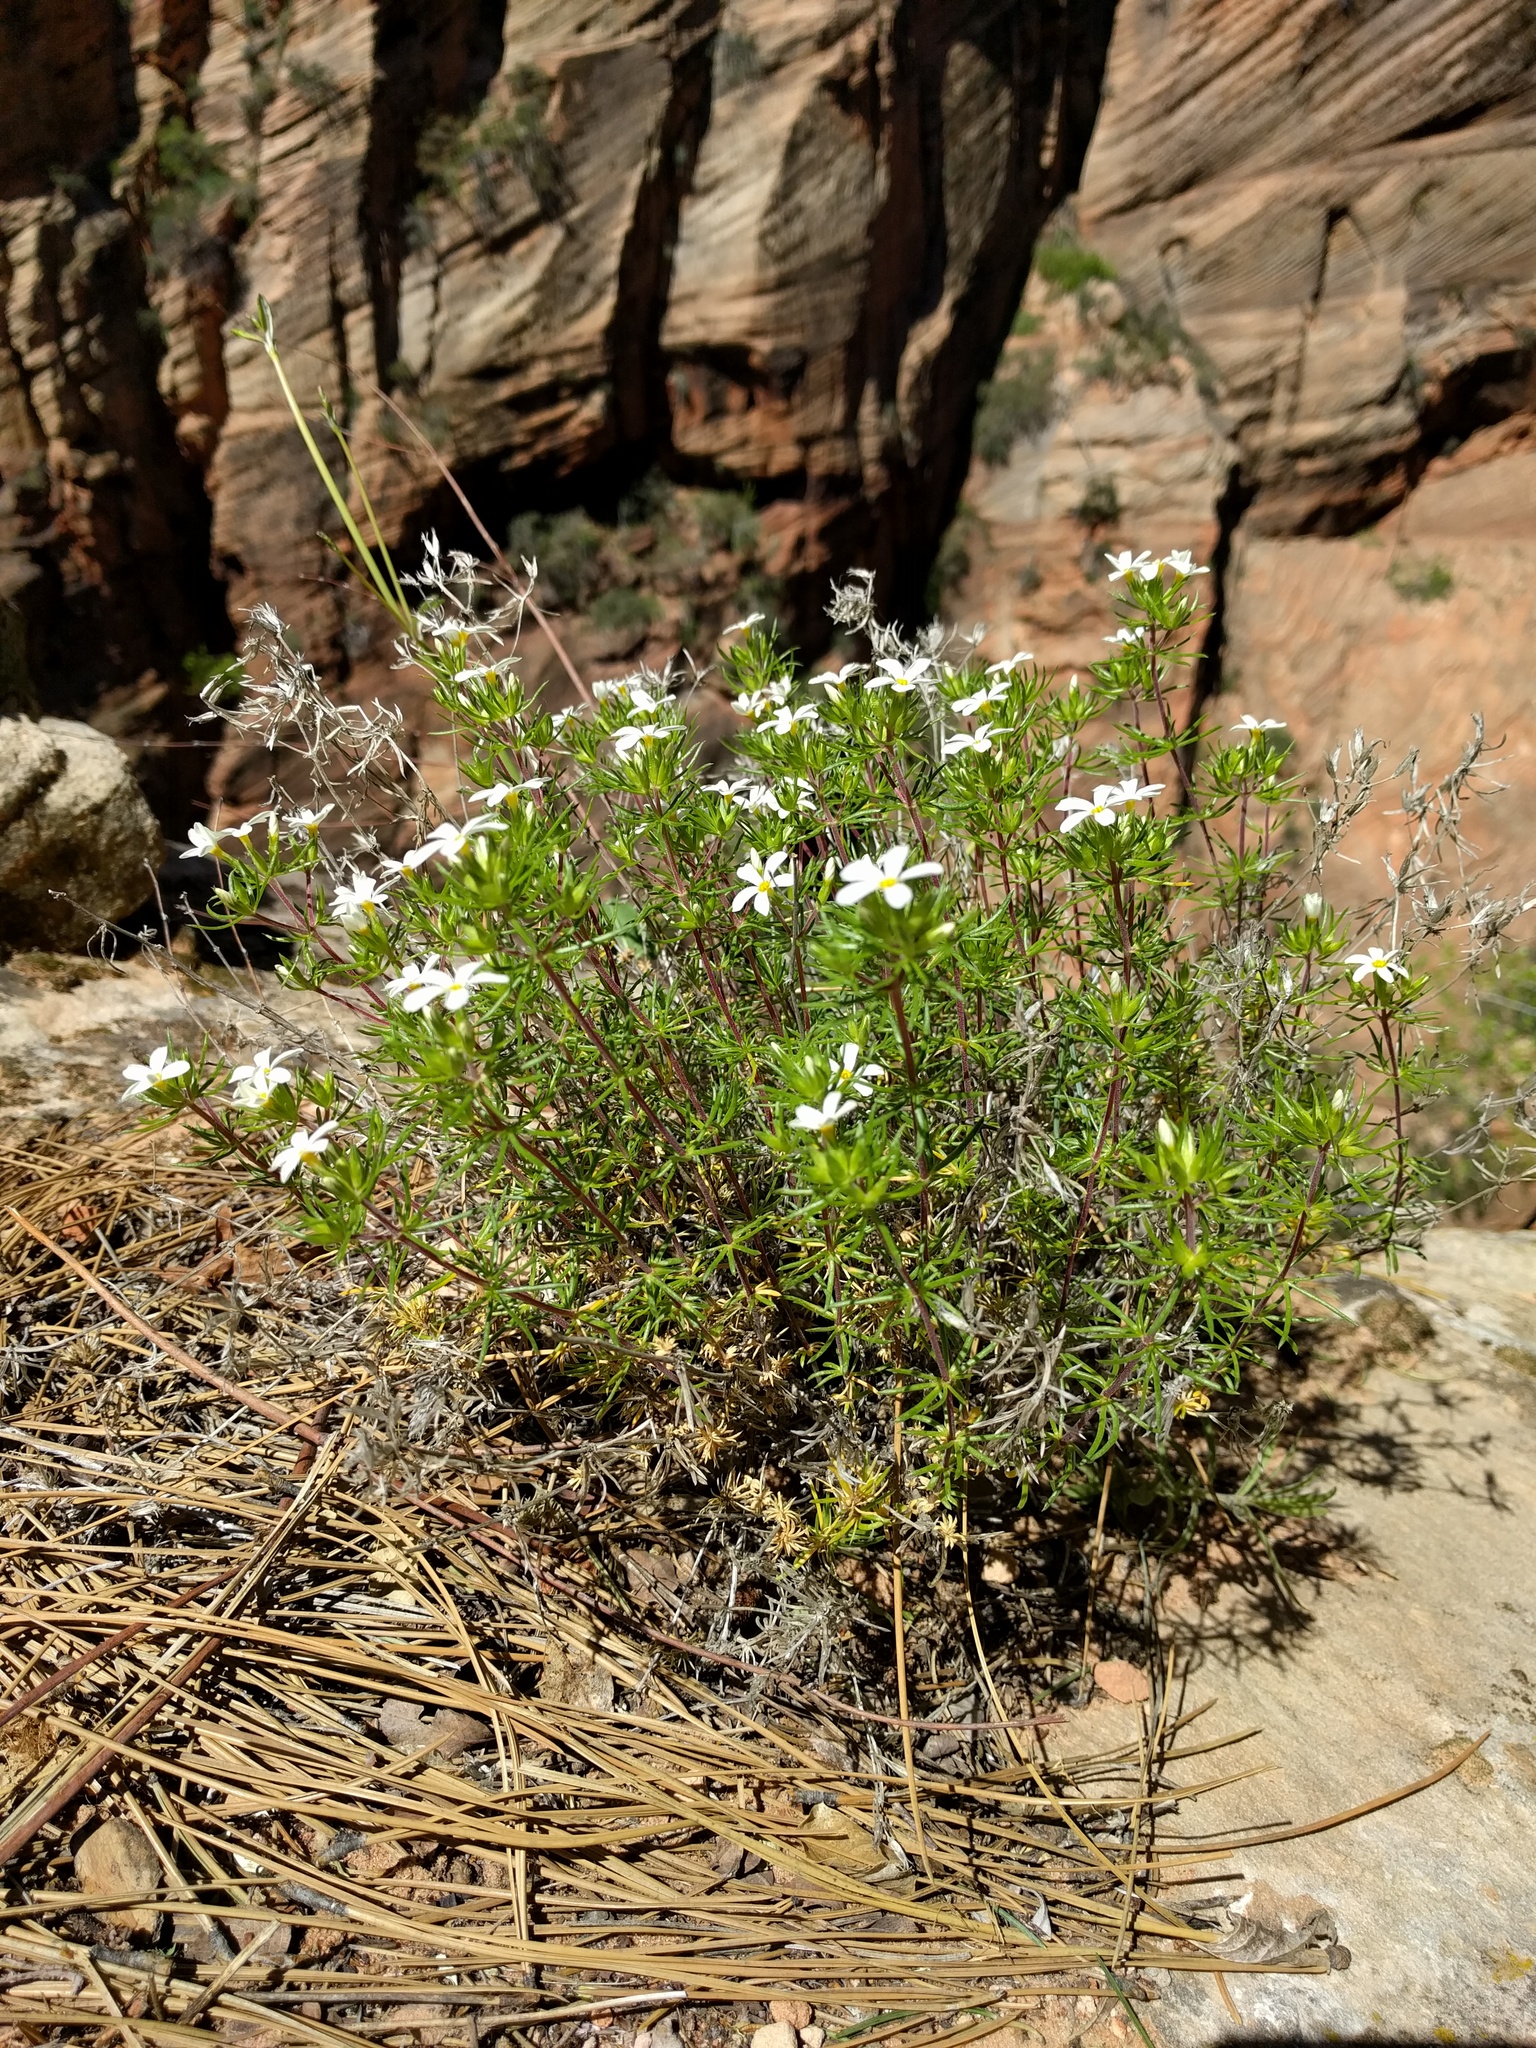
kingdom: Plantae
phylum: Tracheophyta
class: Magnoliopsida
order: Ericales
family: Polemoniaceae
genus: Leptosiphon
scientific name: Leptosiphon nuttallii
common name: Nuttall's linanthus
